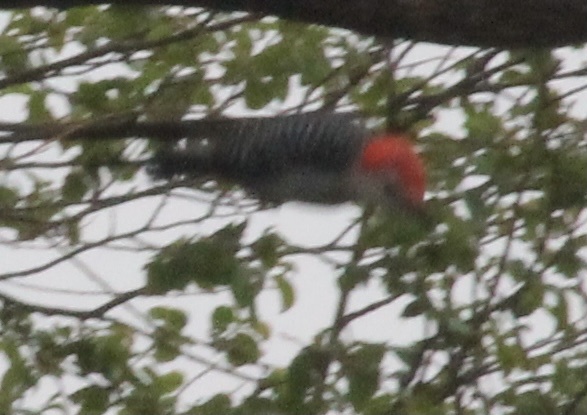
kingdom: Animalia
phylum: Chordata
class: Aves
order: Piciformes
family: Picidae
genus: Melanerpes
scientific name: Melanerpes carolinus
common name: Red-bellied woodpecker
